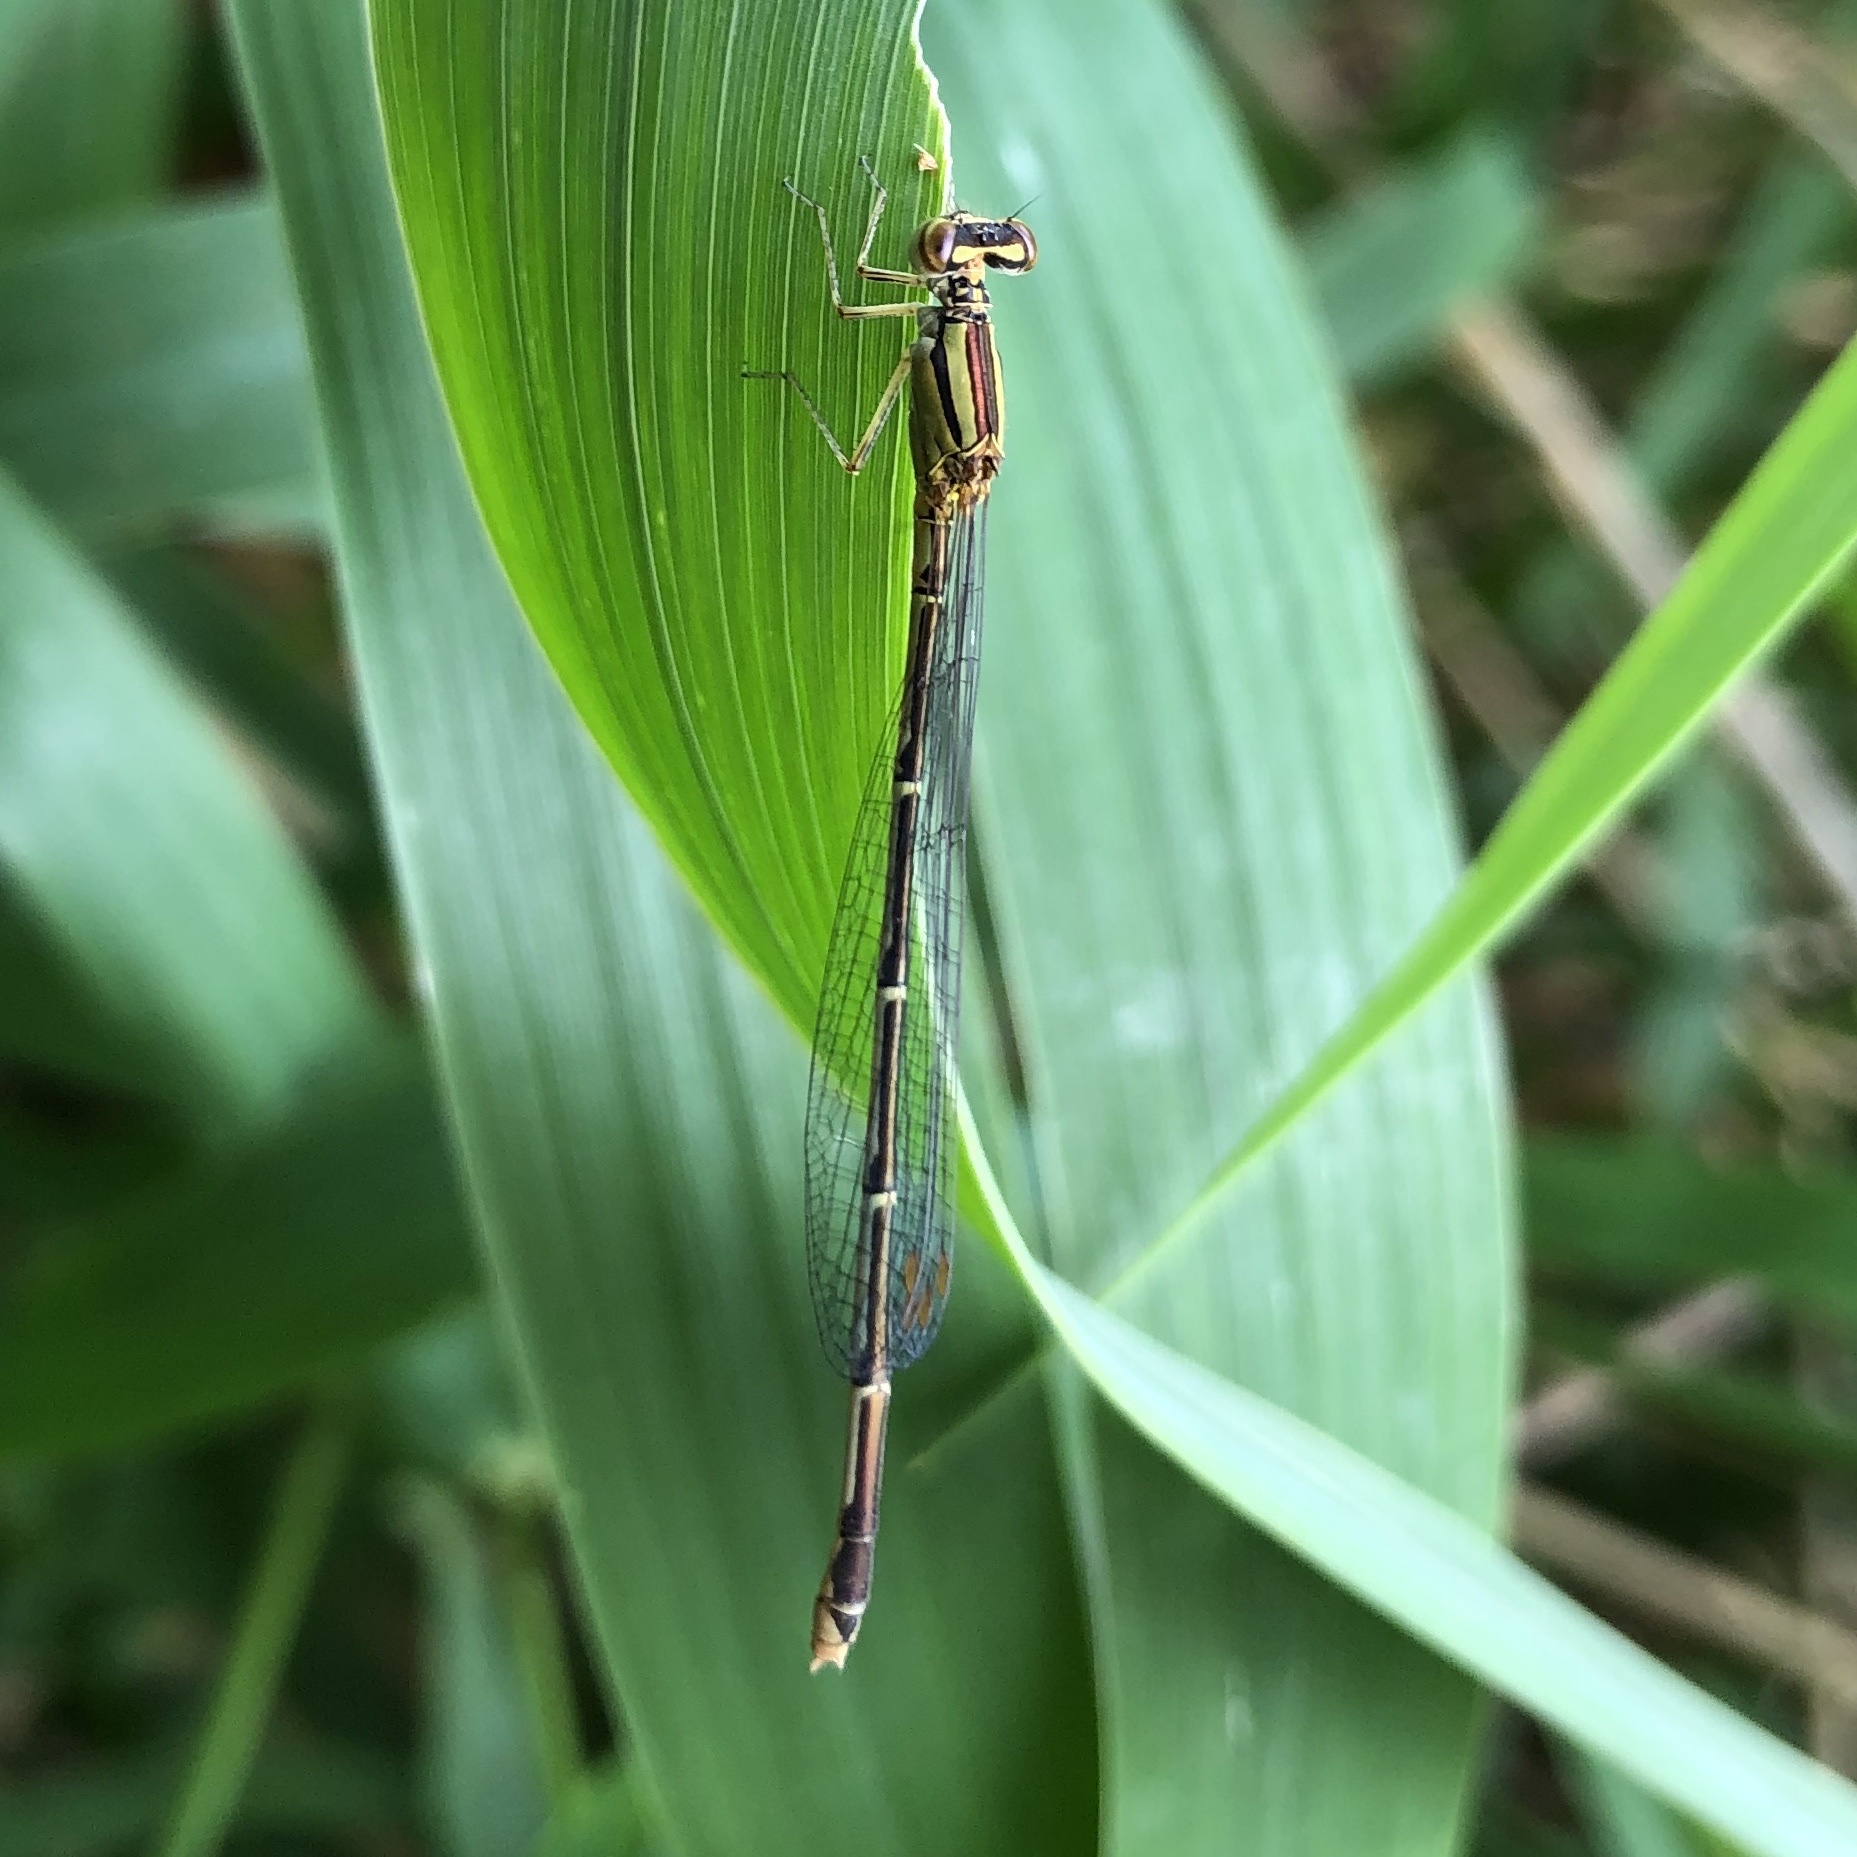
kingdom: Animalia
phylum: Arthropoda
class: Insecta
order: Odonata
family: Coenagrionidae
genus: Enallagma
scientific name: Enallagma signatum
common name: Orange bluet
